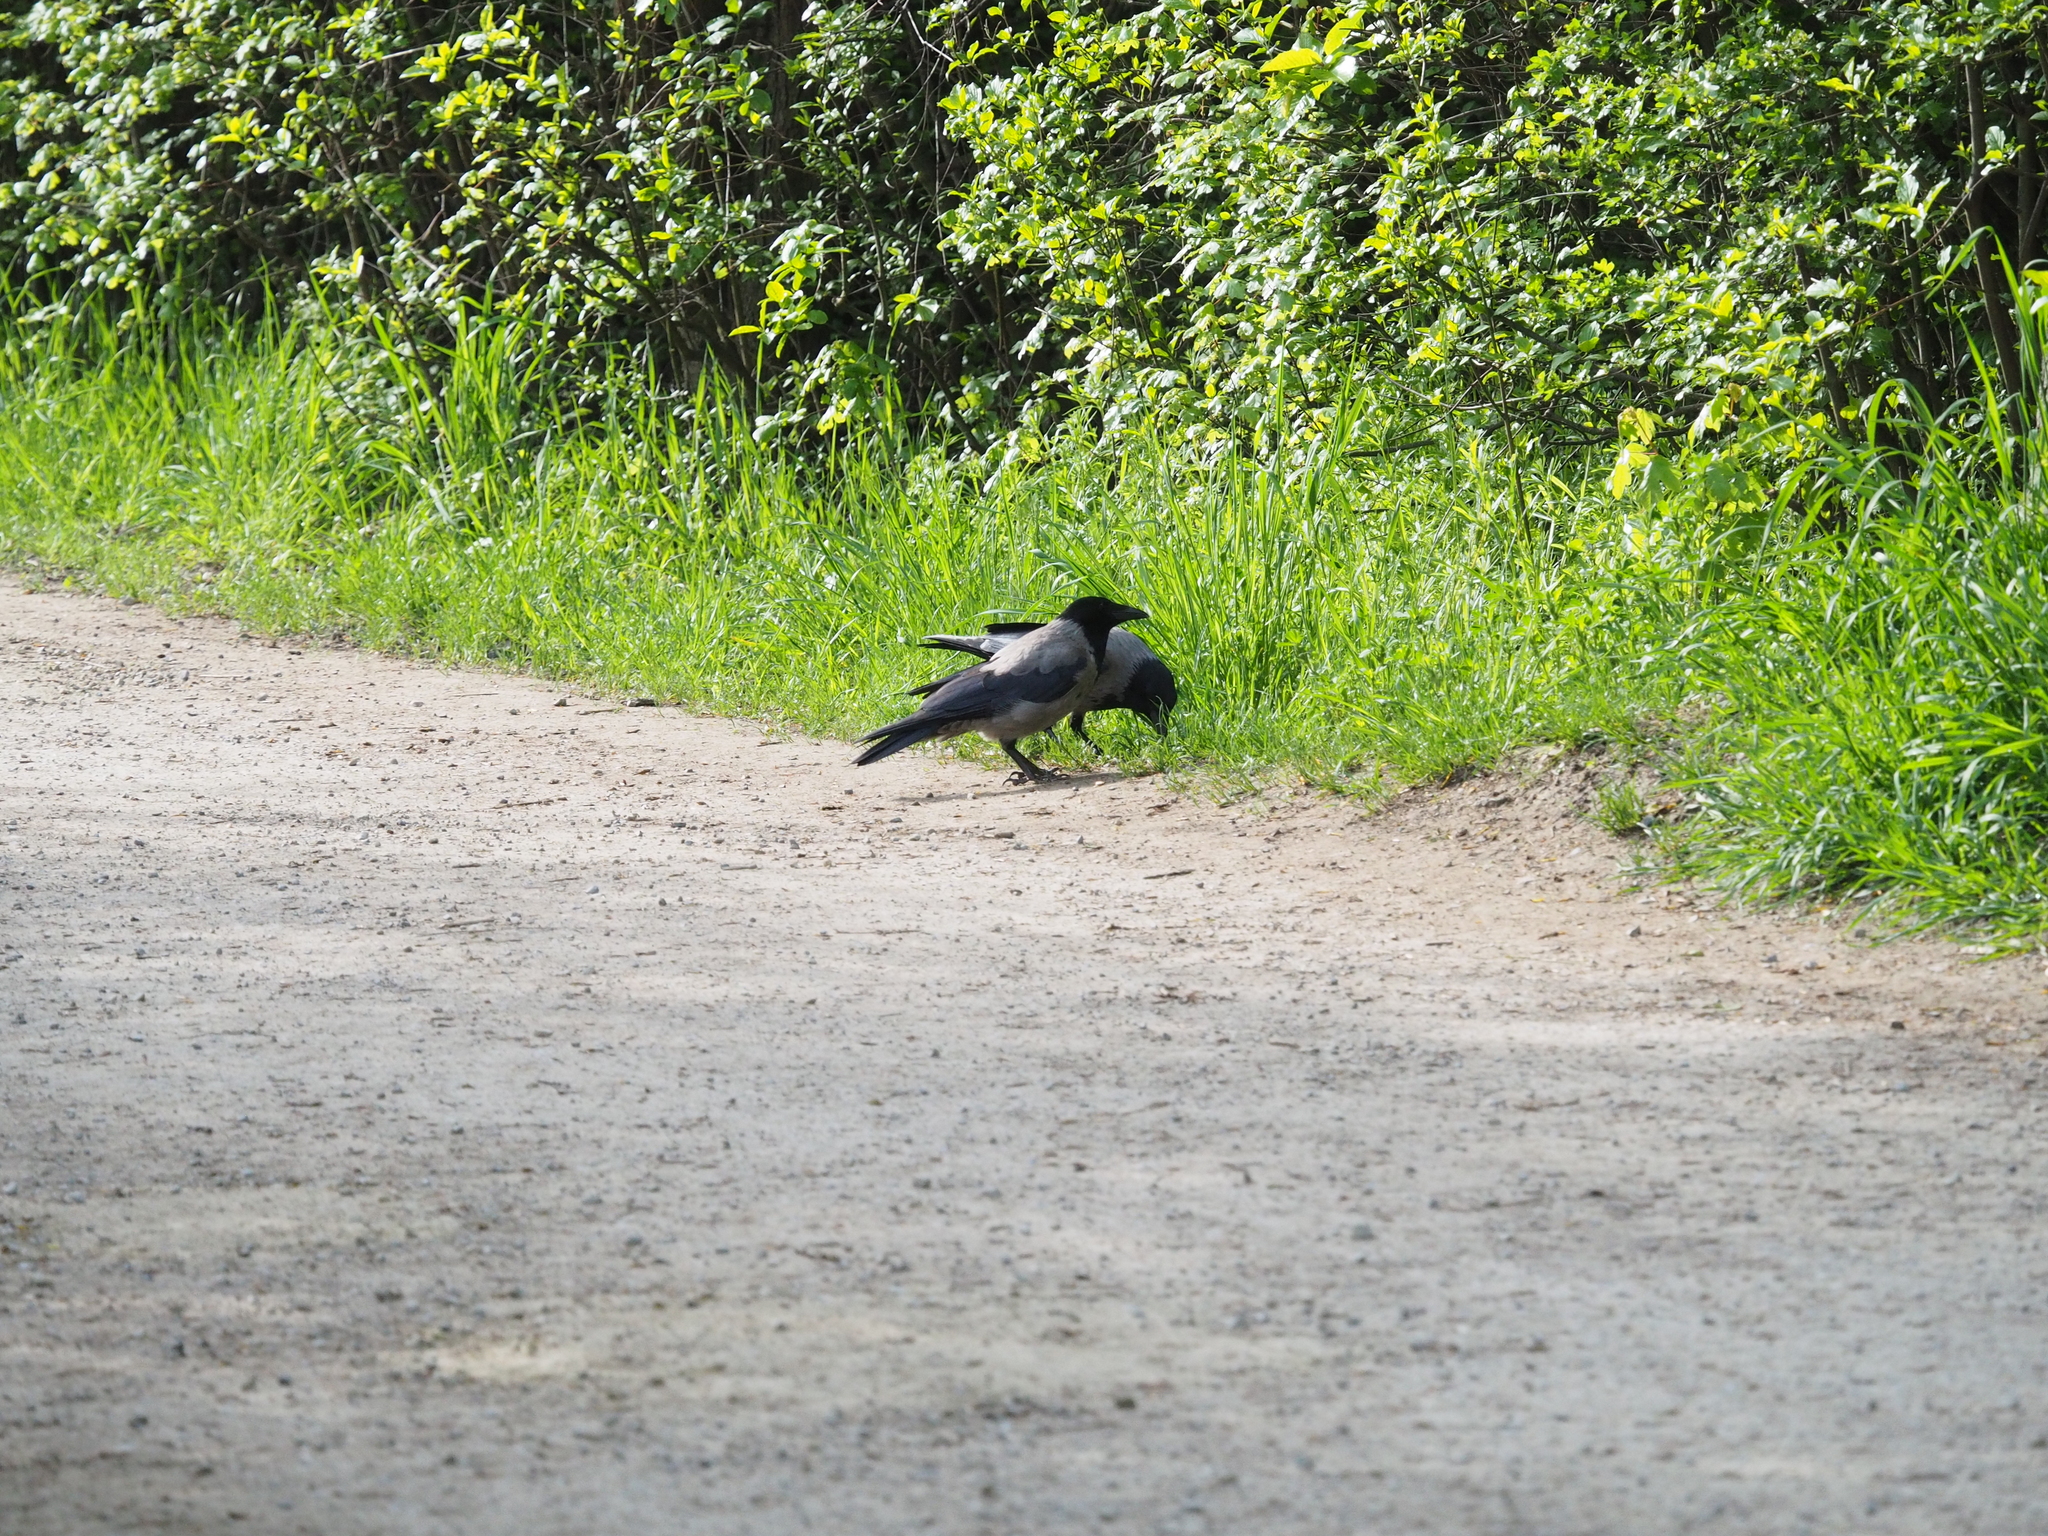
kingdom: Animalia
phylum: Chordata
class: Aves
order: Passeriformes
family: Corvidae
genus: Corvus
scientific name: Corvus cornix
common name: Hooded crow
